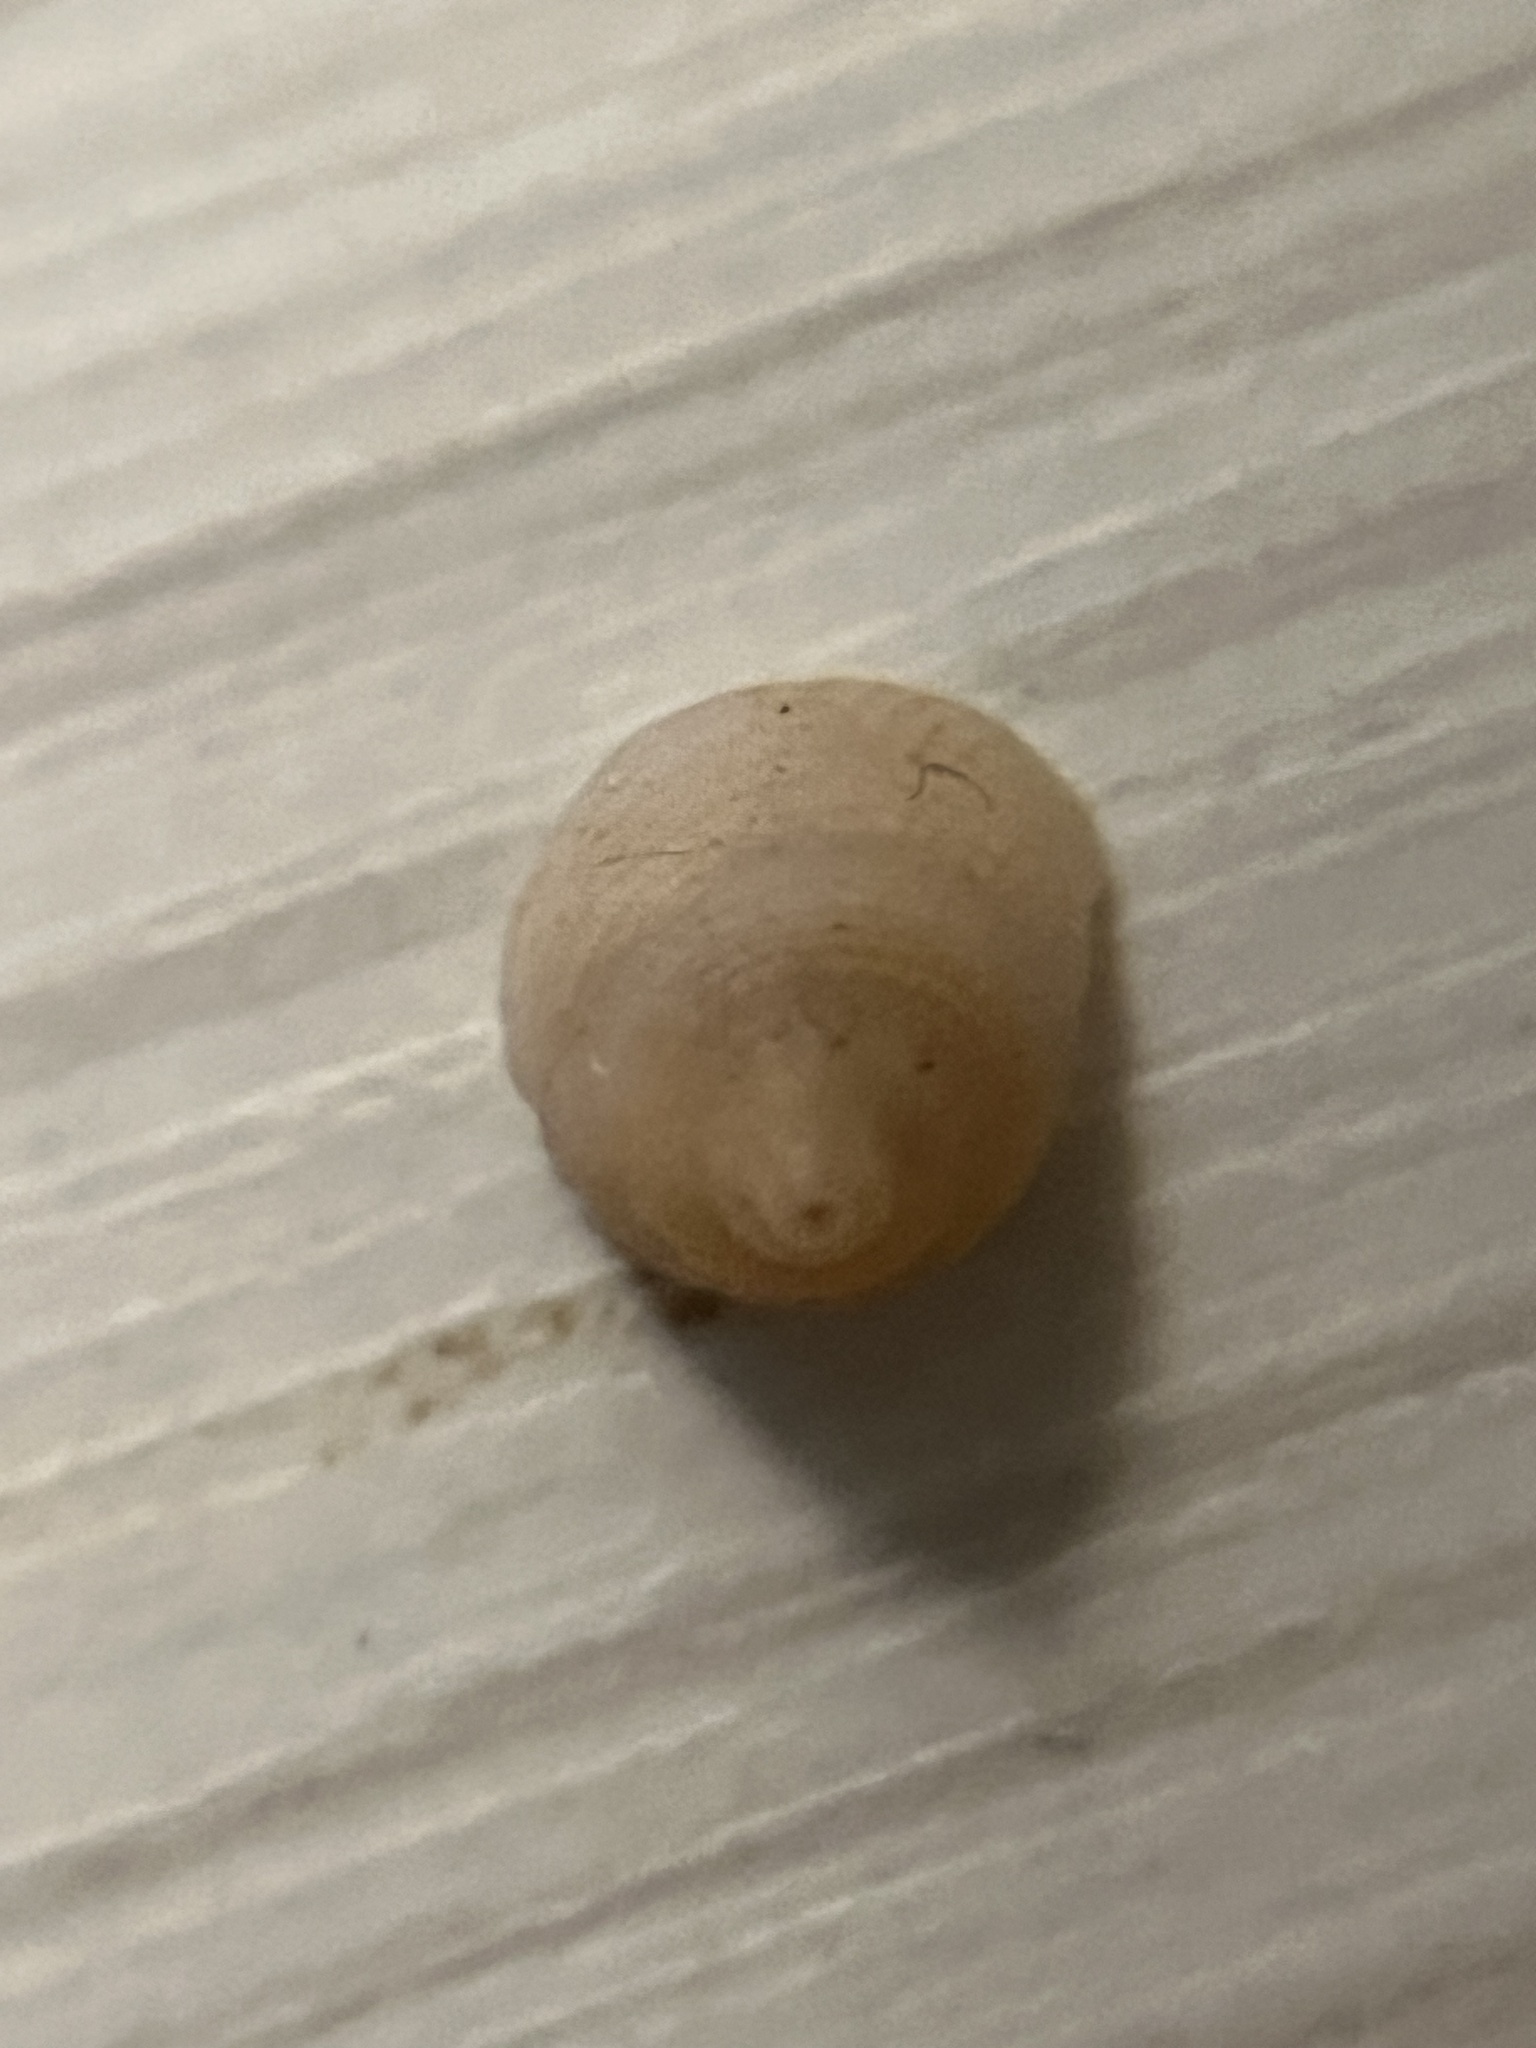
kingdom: Animalia
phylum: Mollusca
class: Gastropoda
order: Littorinimorpha
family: Littorinidae
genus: Peasiella
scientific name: Peasiella tantilla
